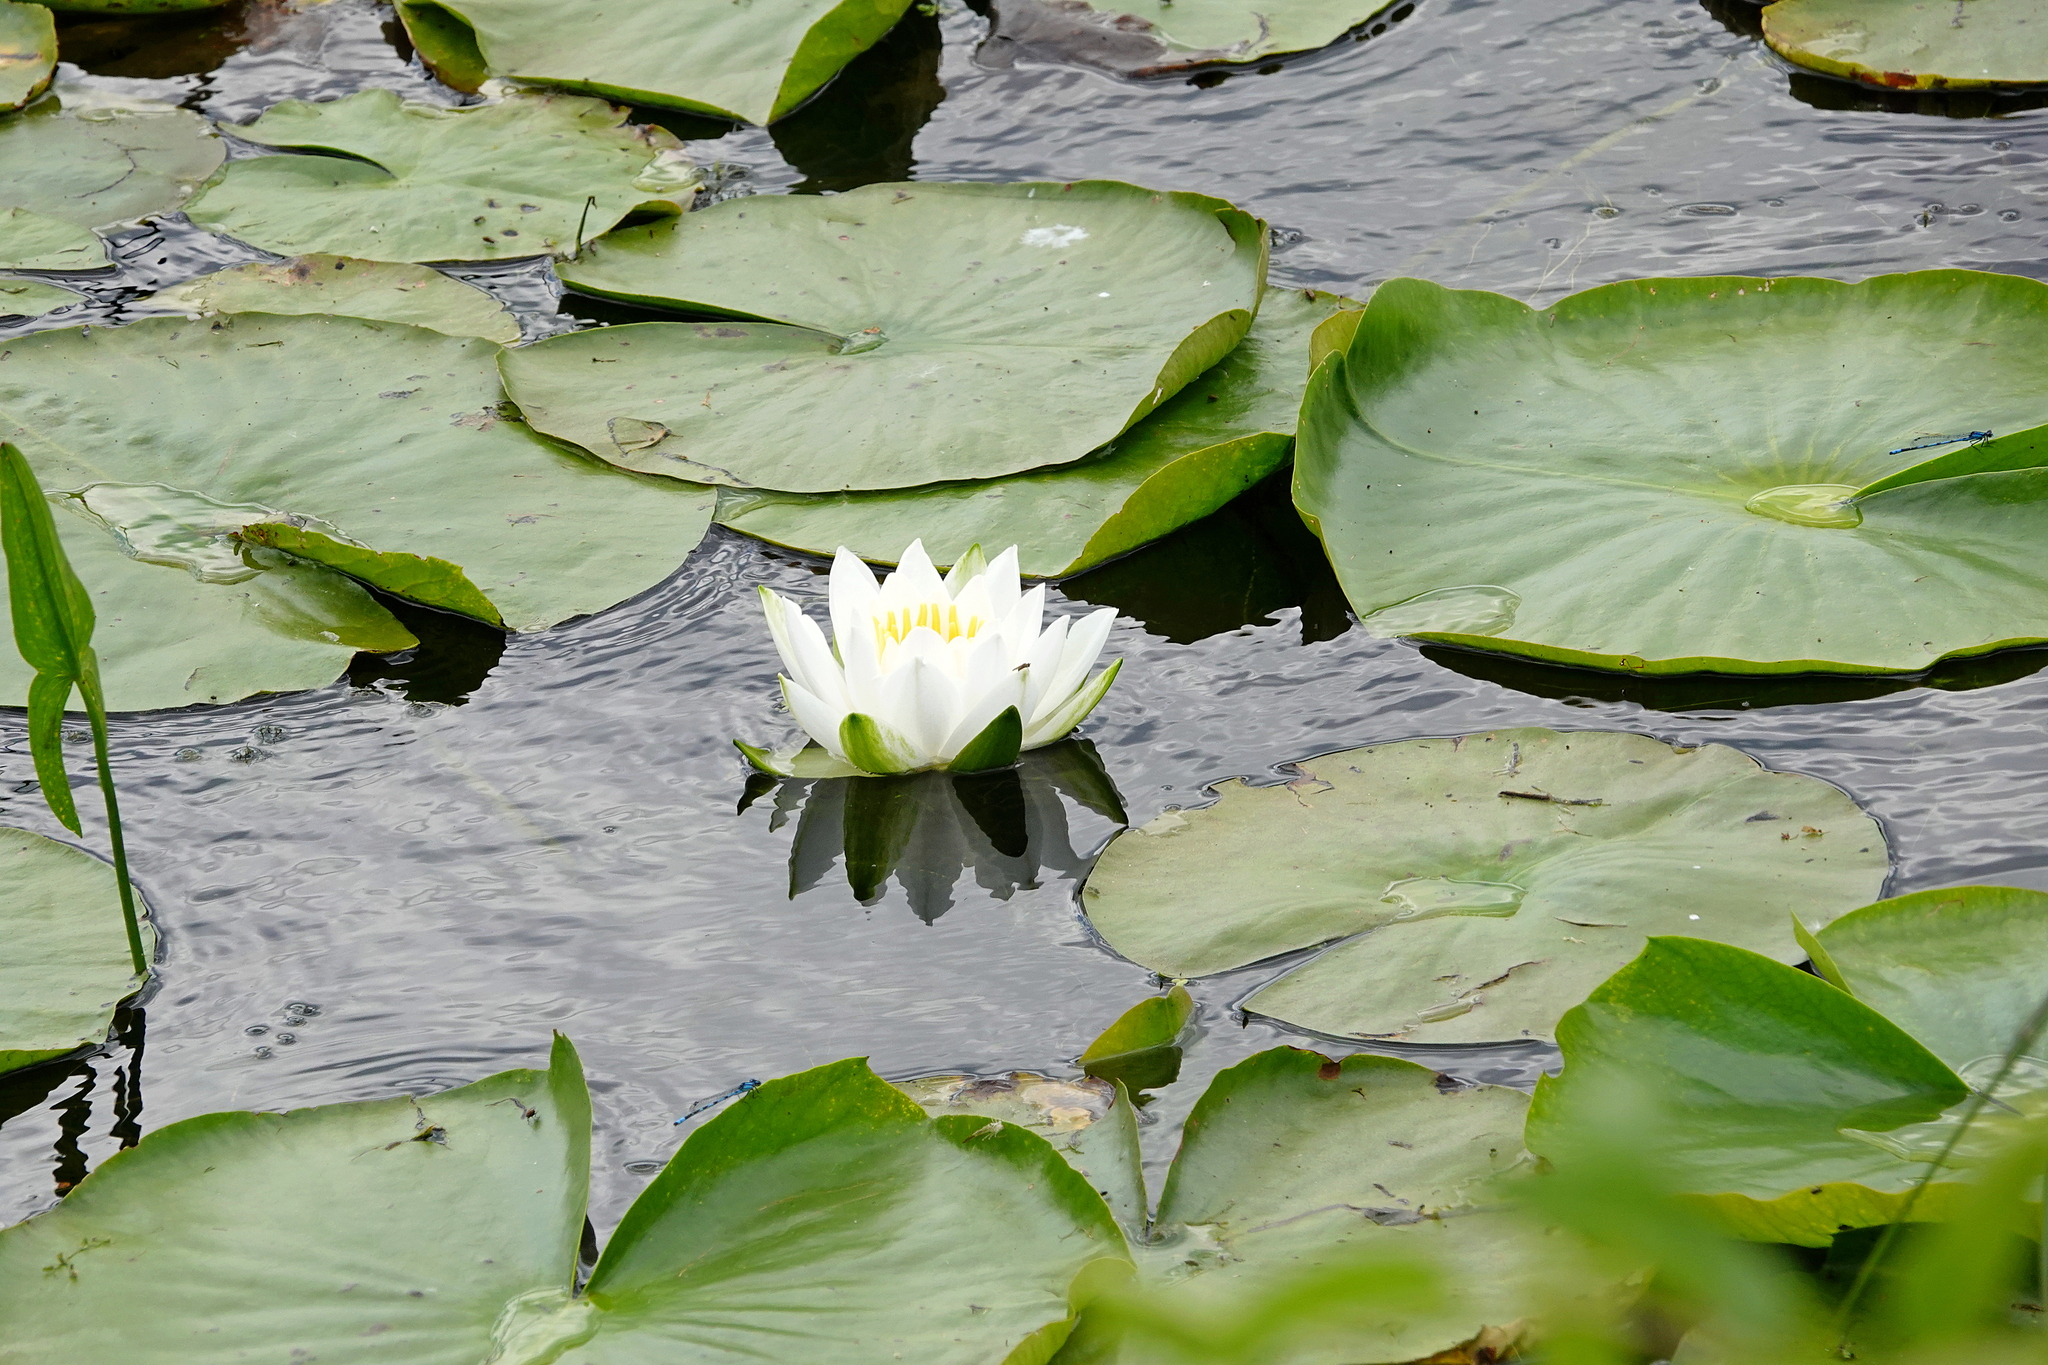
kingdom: Plantae
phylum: Tracheophyta
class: Magnoliopsida
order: Nymphaeales
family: Nymphaeaceae
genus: Nymphaea
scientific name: Nymphaea odorata
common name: Fragrant water-lily
